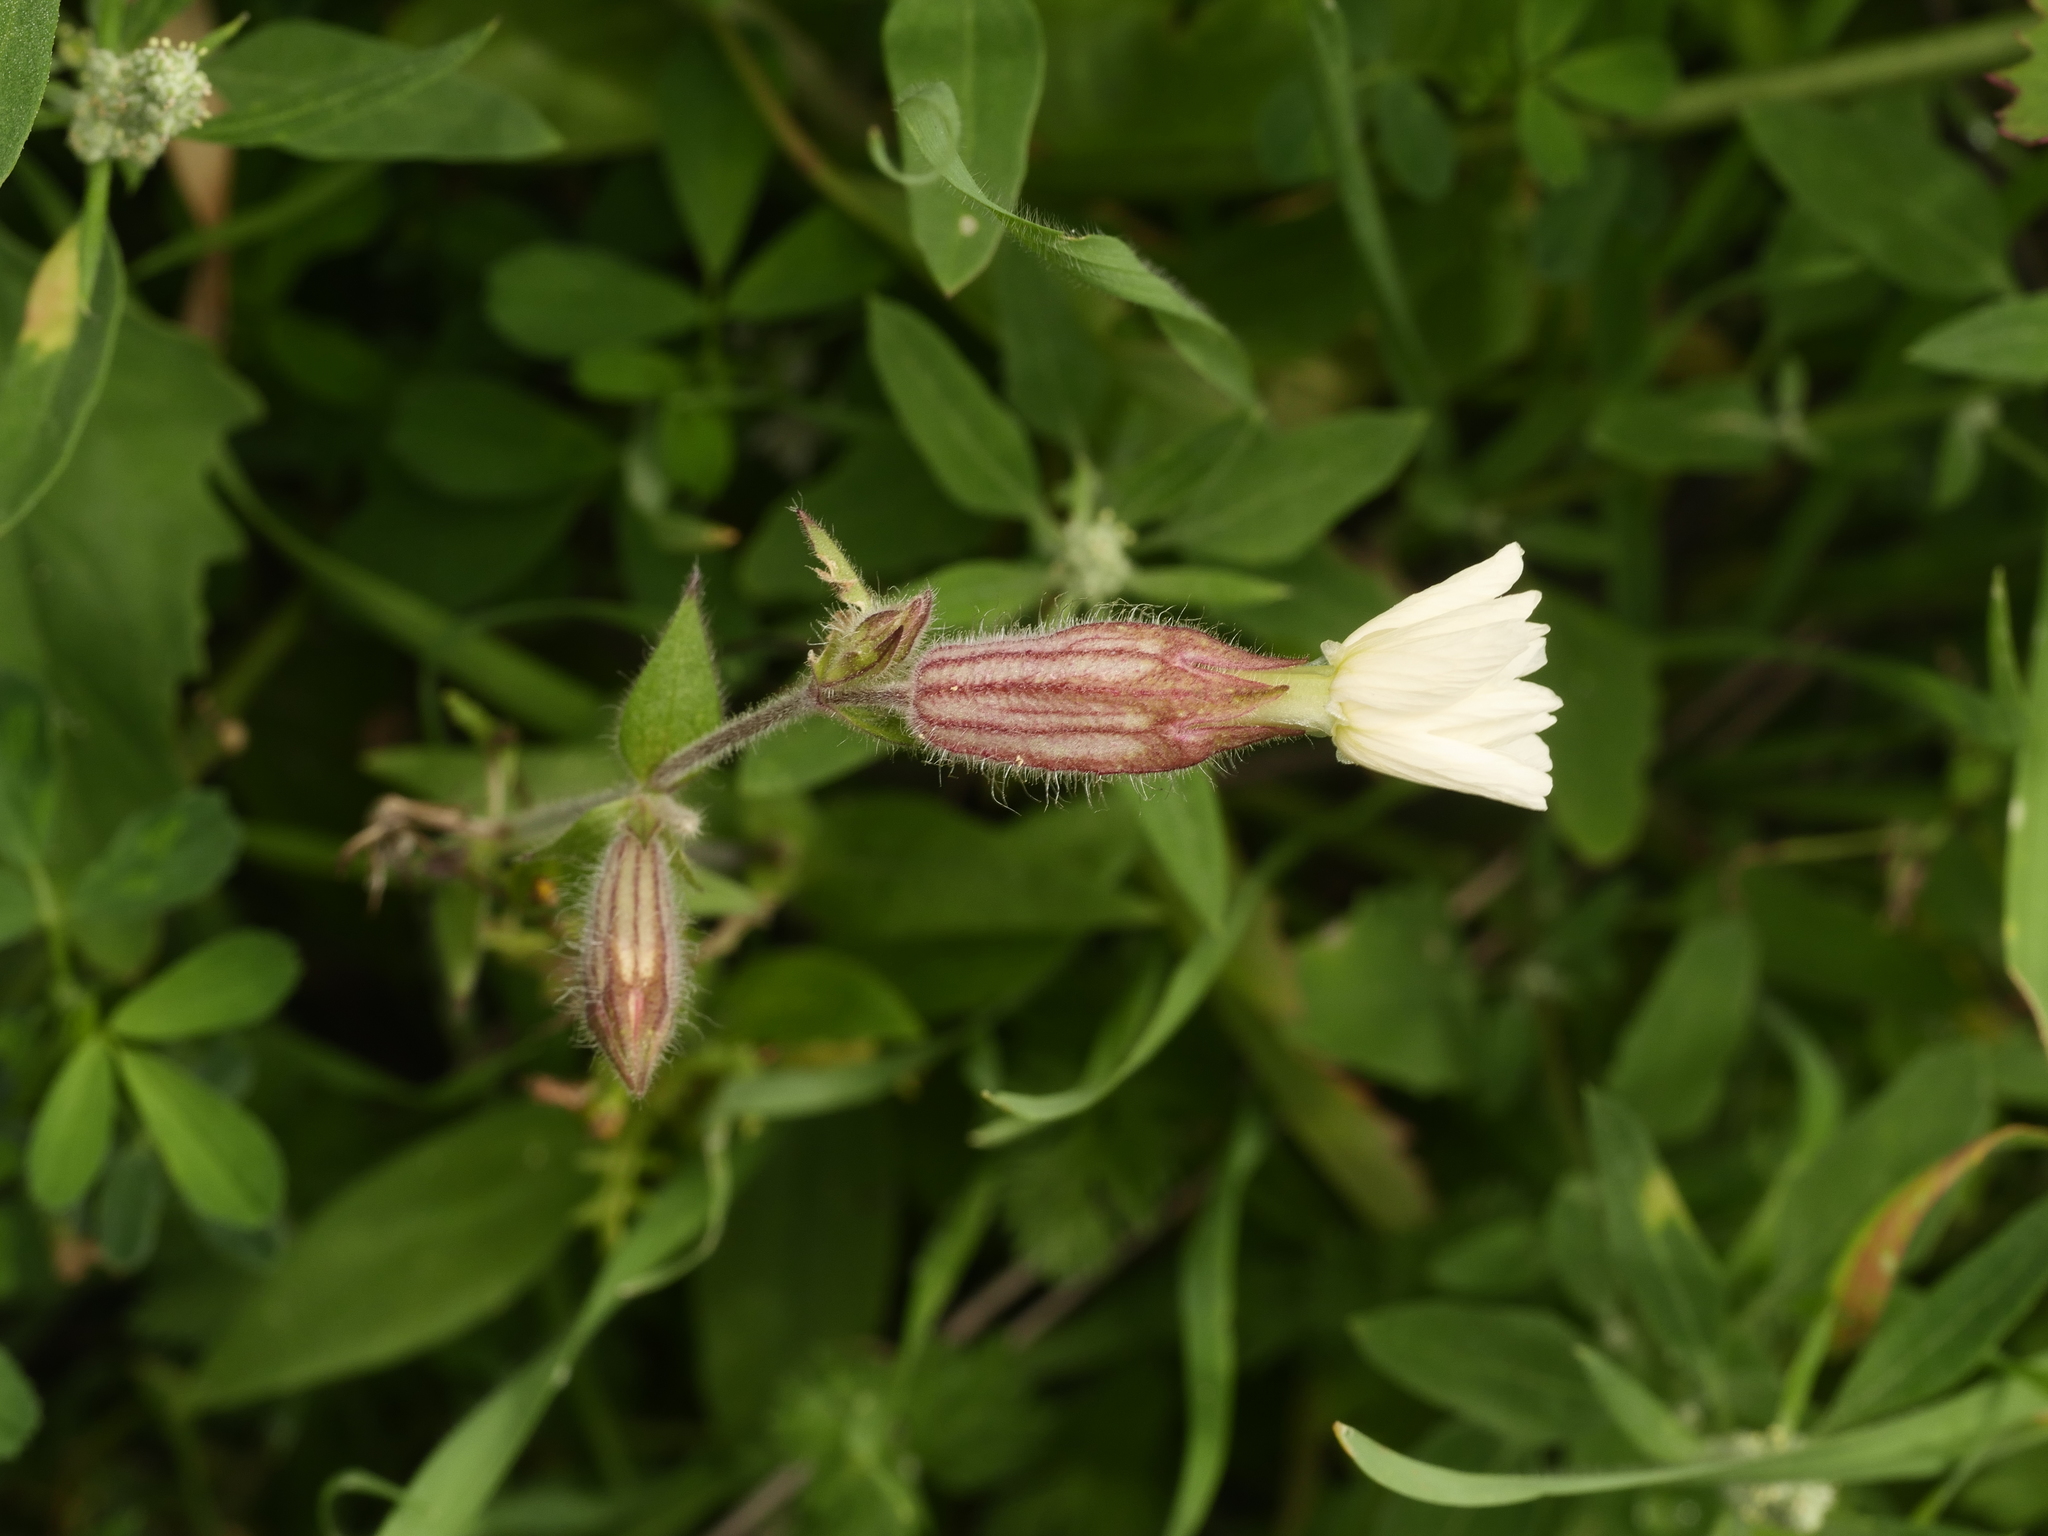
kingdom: Plantae
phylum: Tracheophyta
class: Magnoliopsida
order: Caryophyllales
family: Caryophyllaceae
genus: Silene
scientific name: Silene latifolia
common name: White campion
